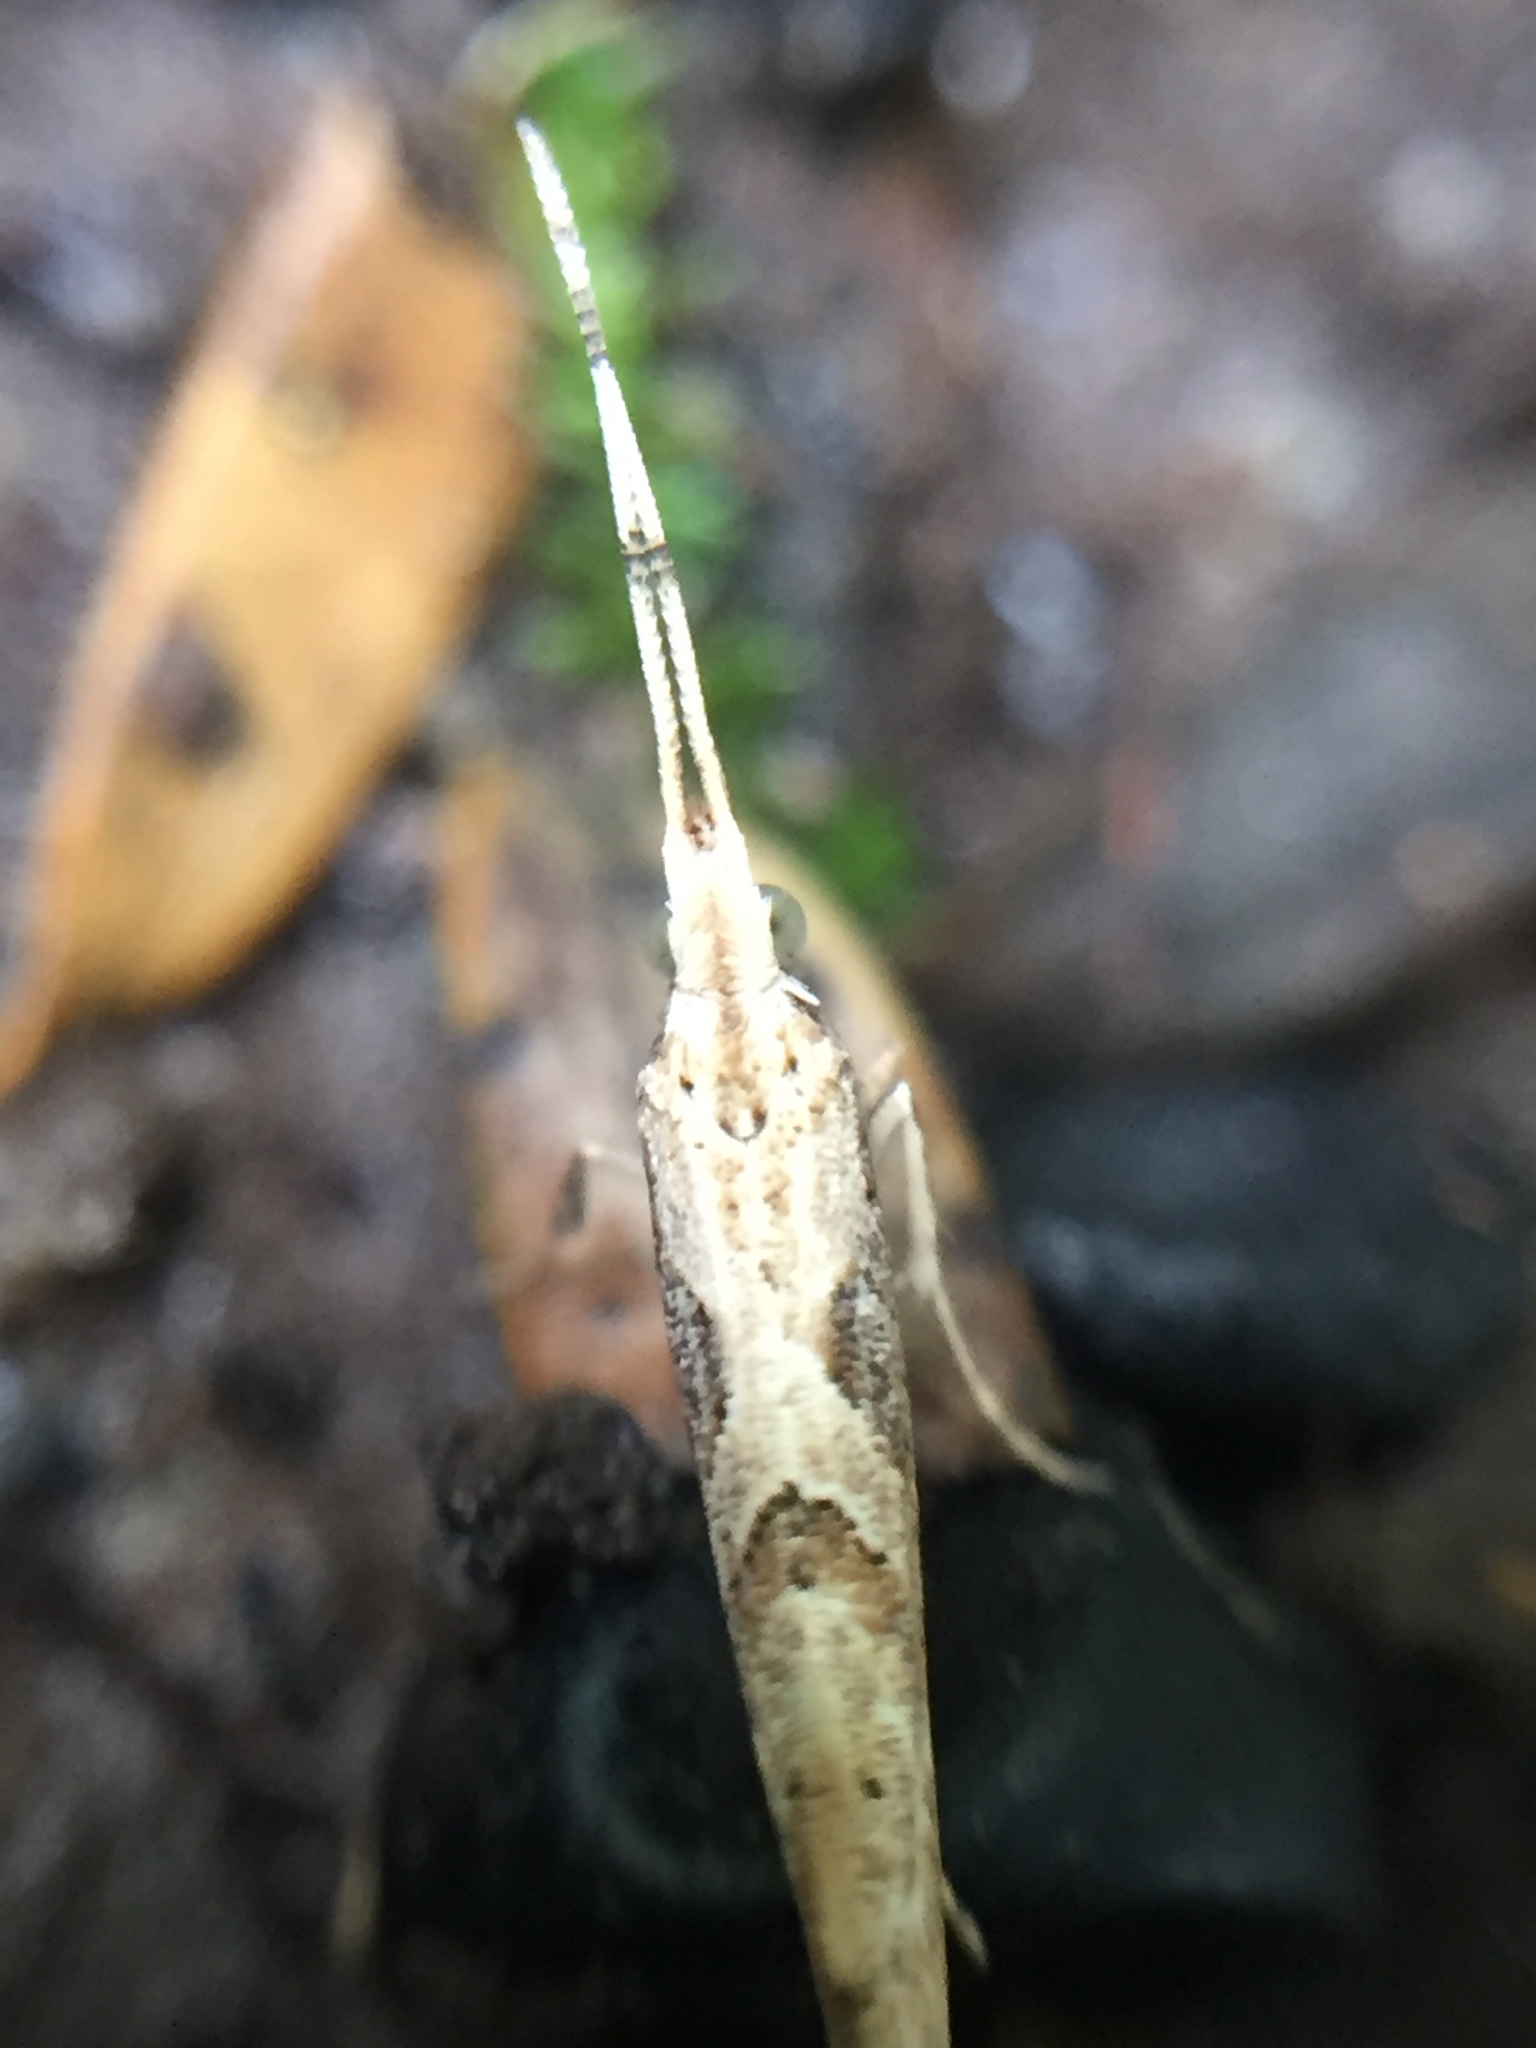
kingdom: Animalia
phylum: Arthropoda
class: Insecta
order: Lepidoptera
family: Plutellidae
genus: Leuroperna
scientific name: Leuroperna sera
